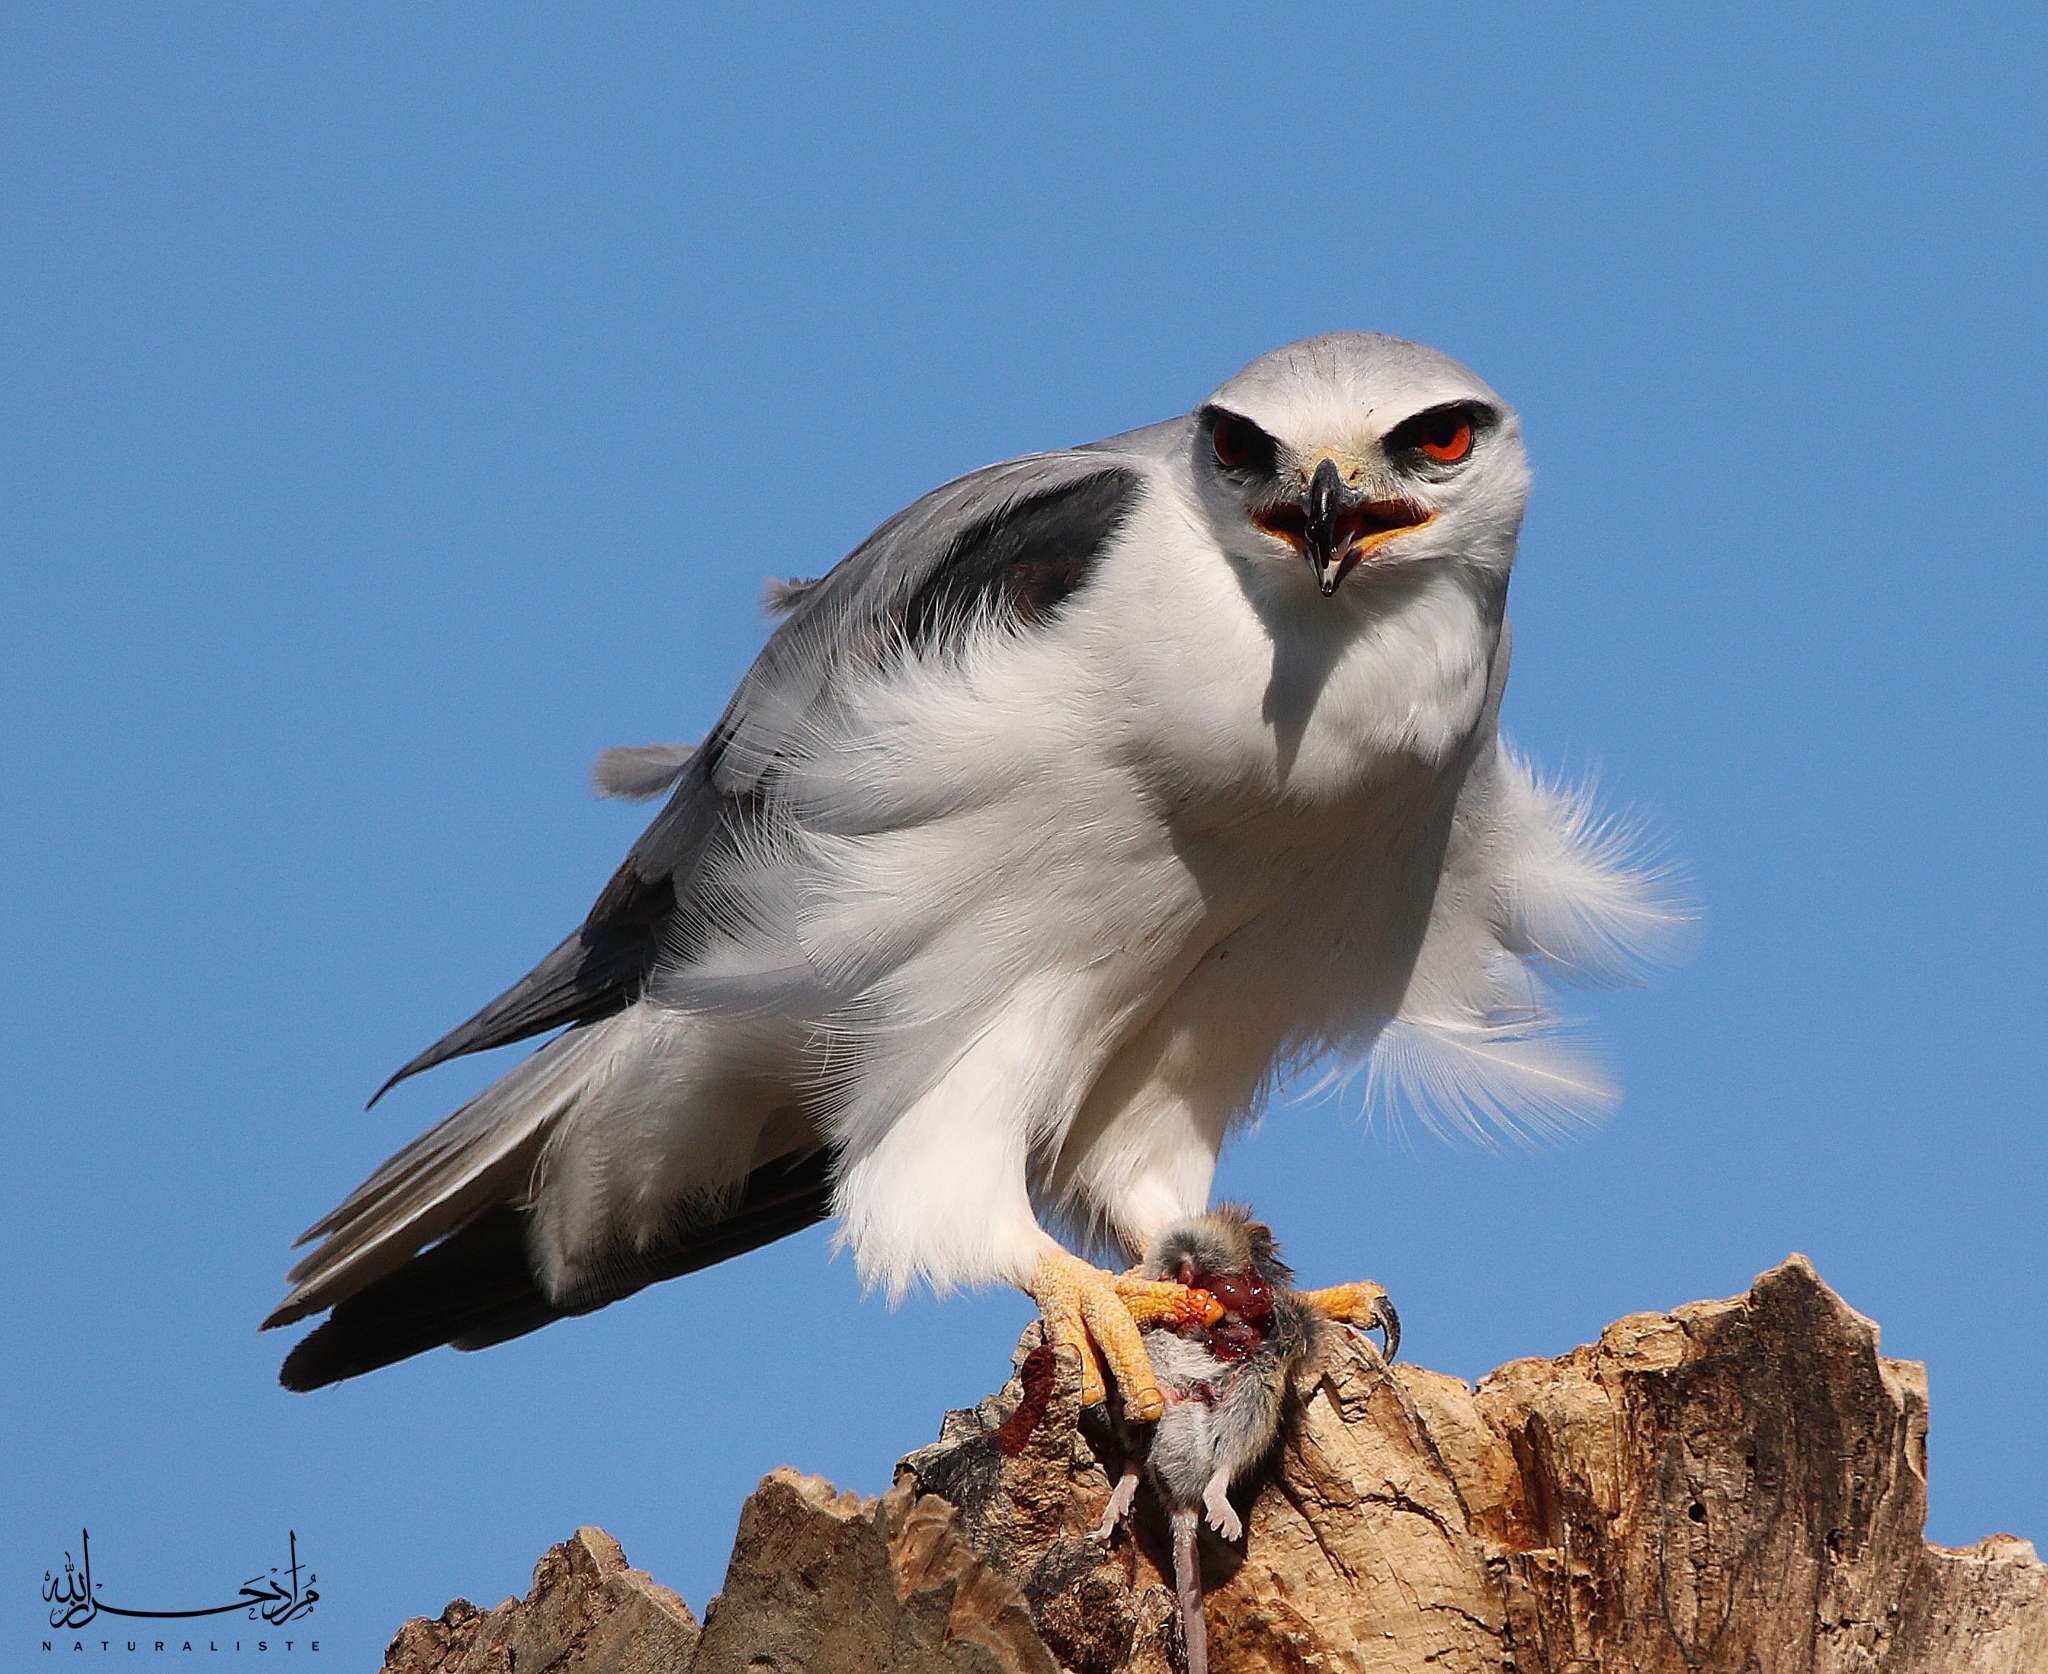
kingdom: Animalia
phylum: Chordata
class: Aves
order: Accipitriformes
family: Accipitridae
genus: Elanus
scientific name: Elanus caeruleus
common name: Black-winged kite
